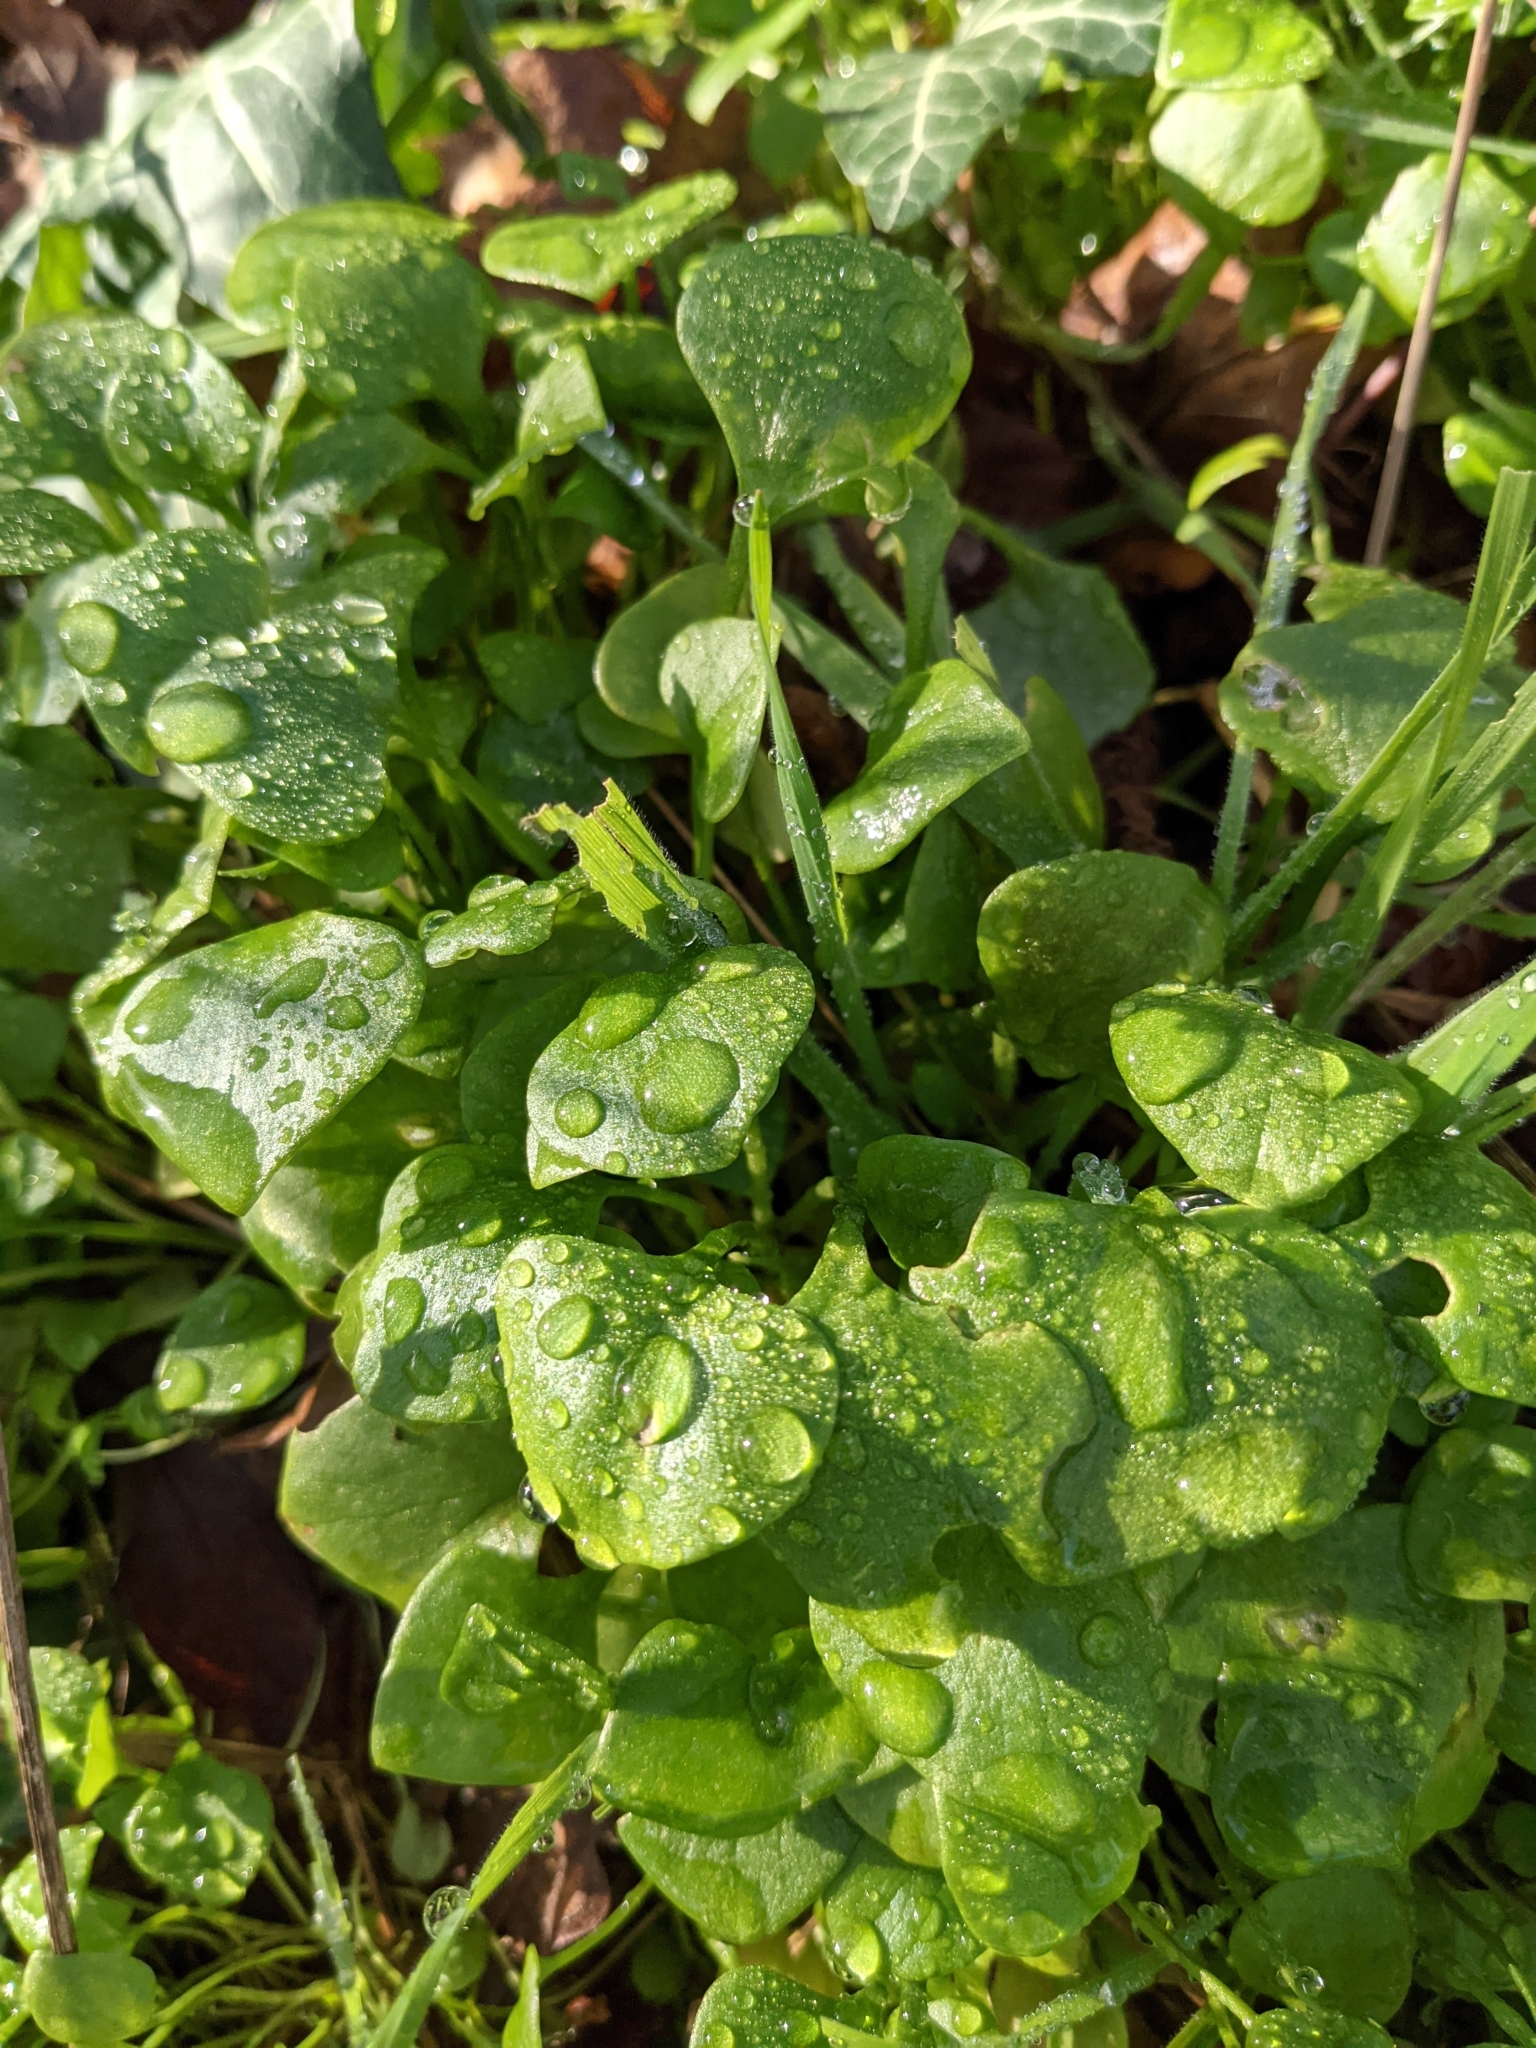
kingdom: Plantae
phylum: Tracheophyta
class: Magnoliopsida
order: Caryophyllales
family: Montiaceae
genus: Claytonia
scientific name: Claytonia perfoliata
